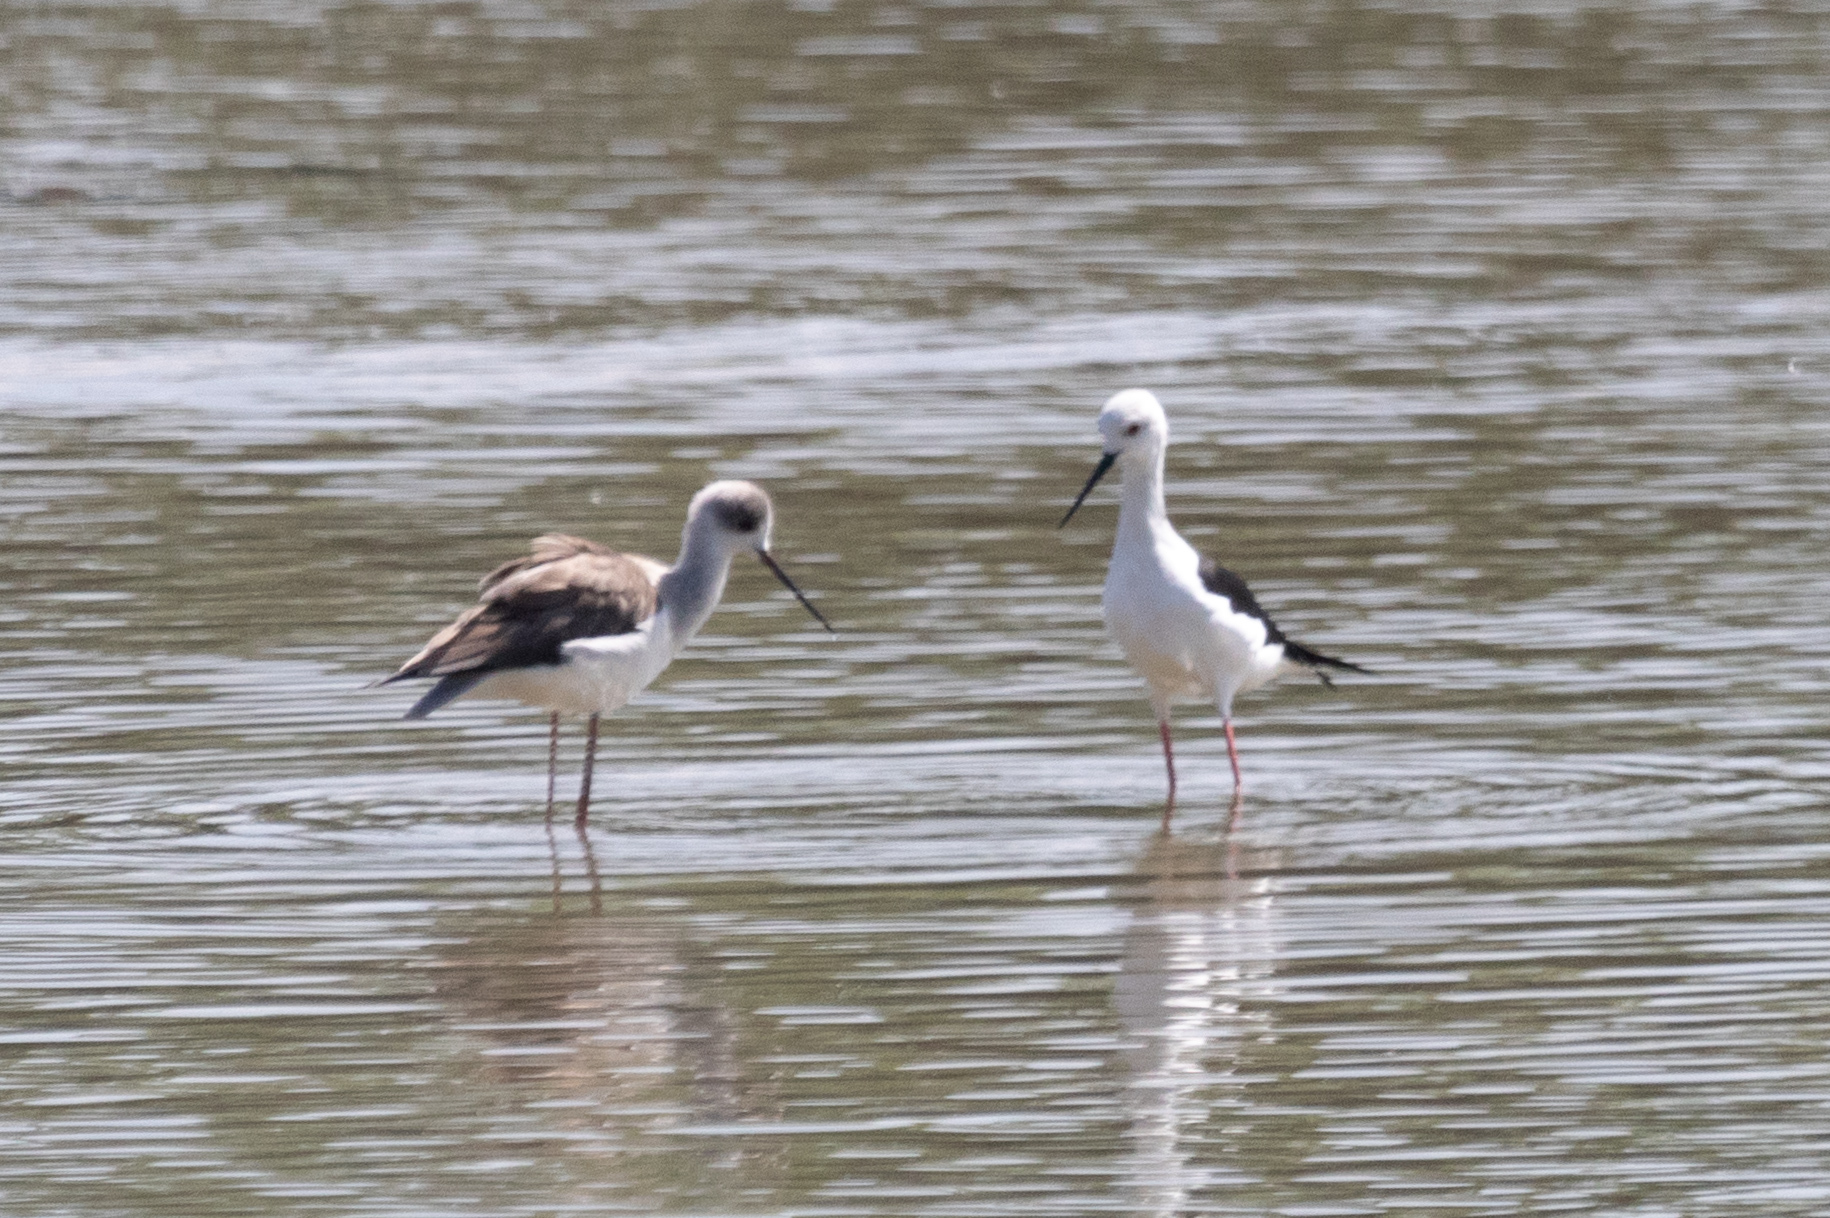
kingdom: Animalia
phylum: Chordata
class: Aves
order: Charadriiformes
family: Recurvirostridae
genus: Himantopus
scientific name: Himantopus himantopus
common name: Black-winged stilt
